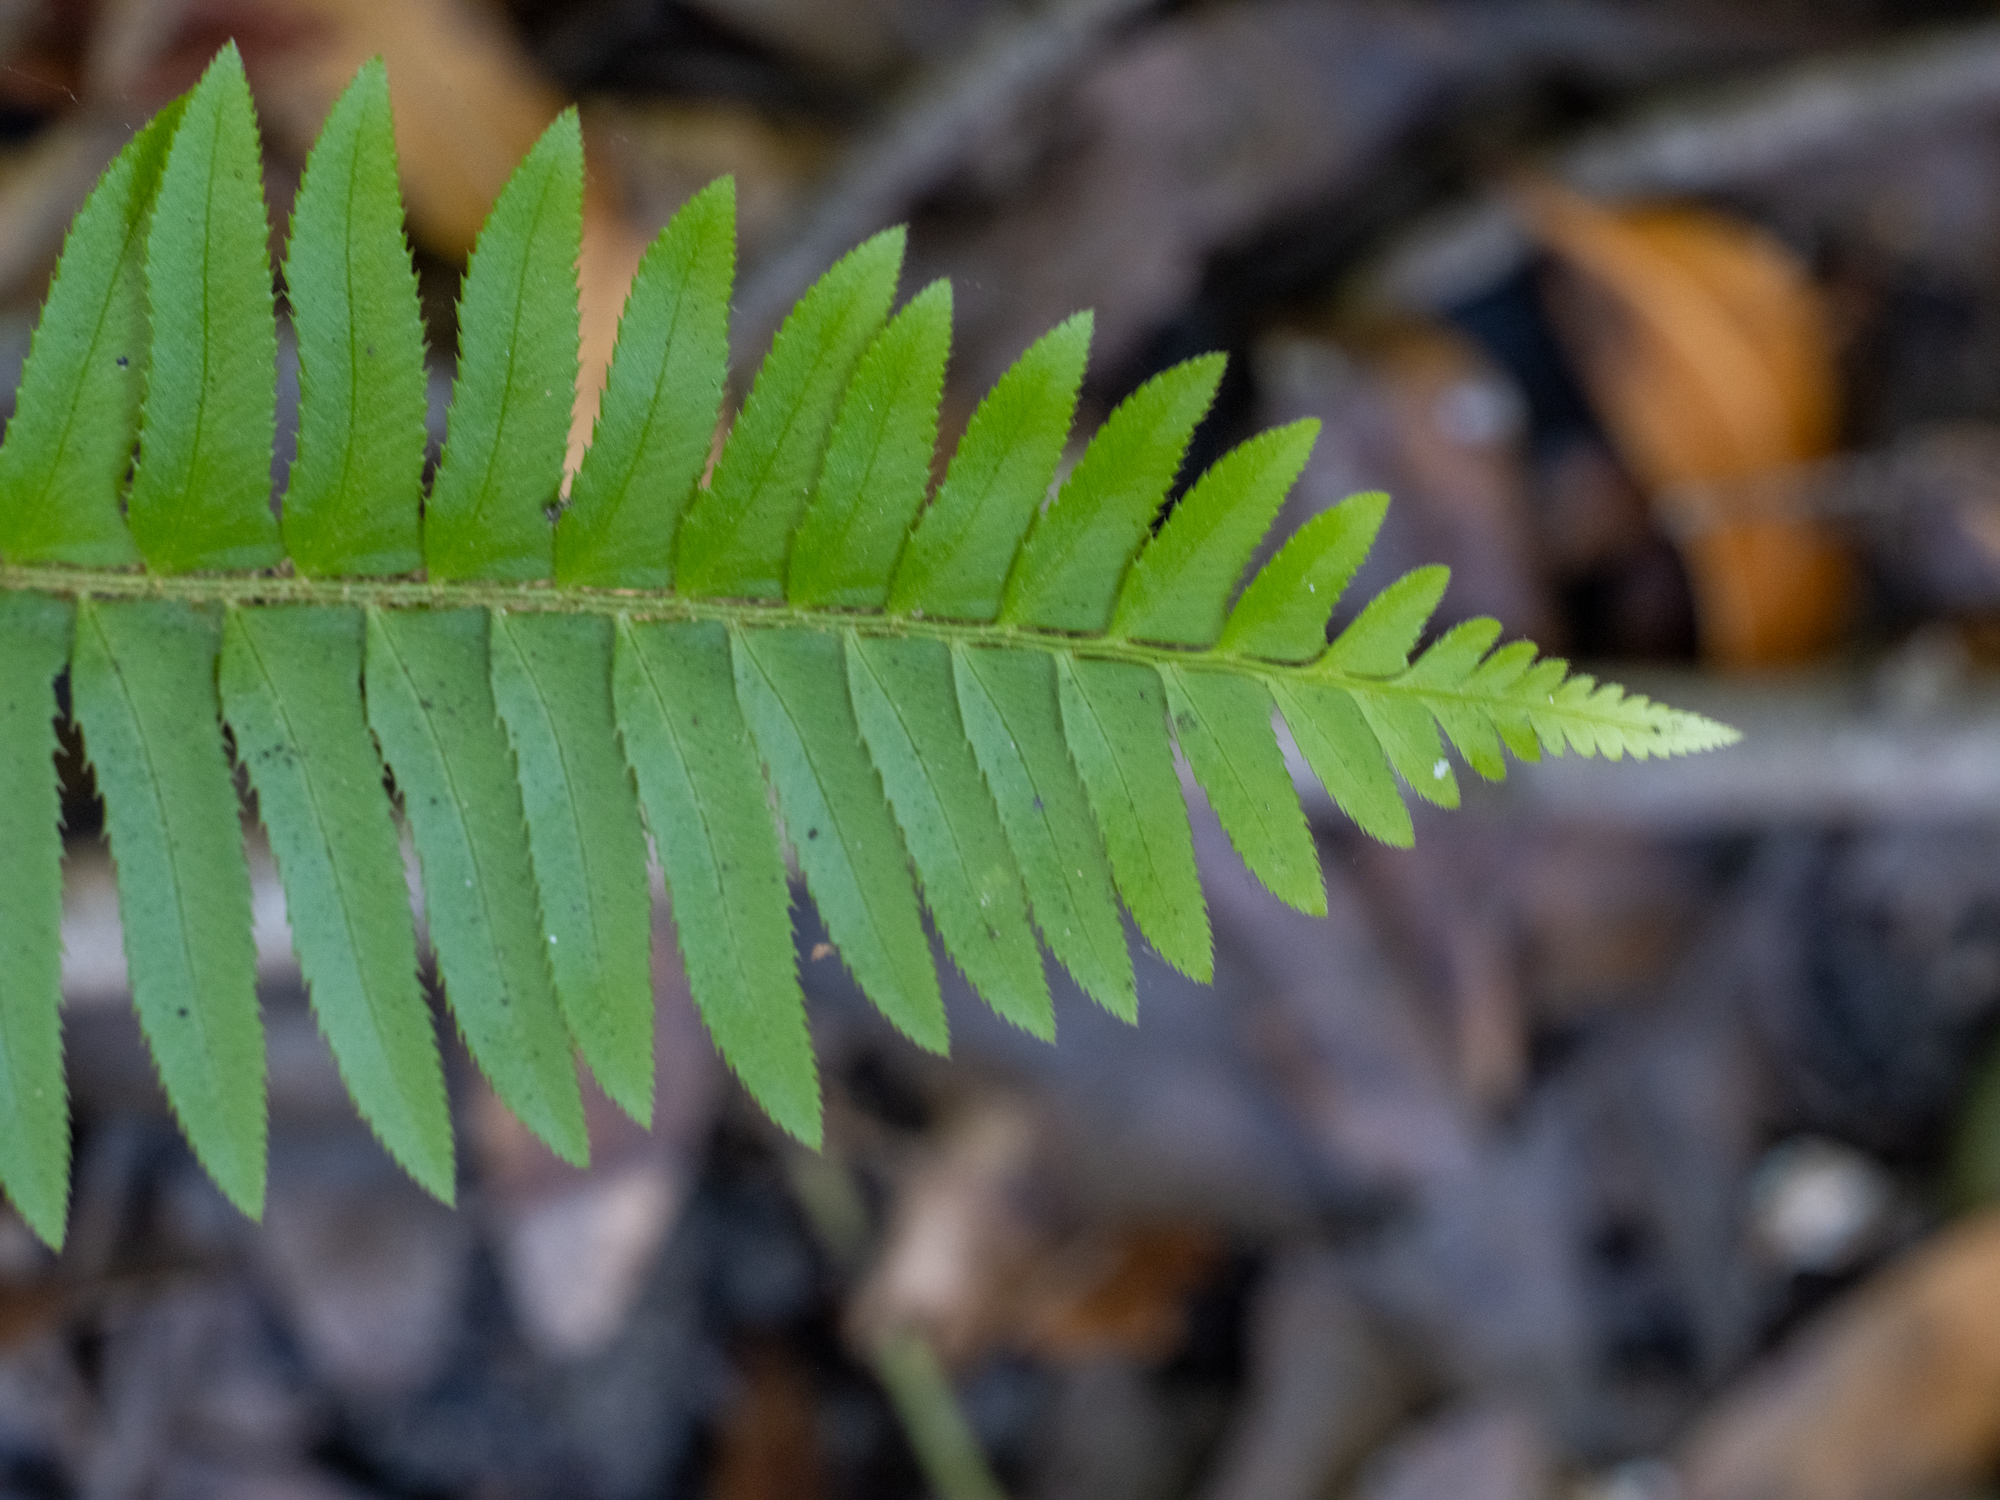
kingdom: Plantae
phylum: Tracheophyta
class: Polypodiopsida
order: Polypodiales
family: Dryopteridaceae
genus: Polystichum
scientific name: Polystichum munitum
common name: Western sword-fern
